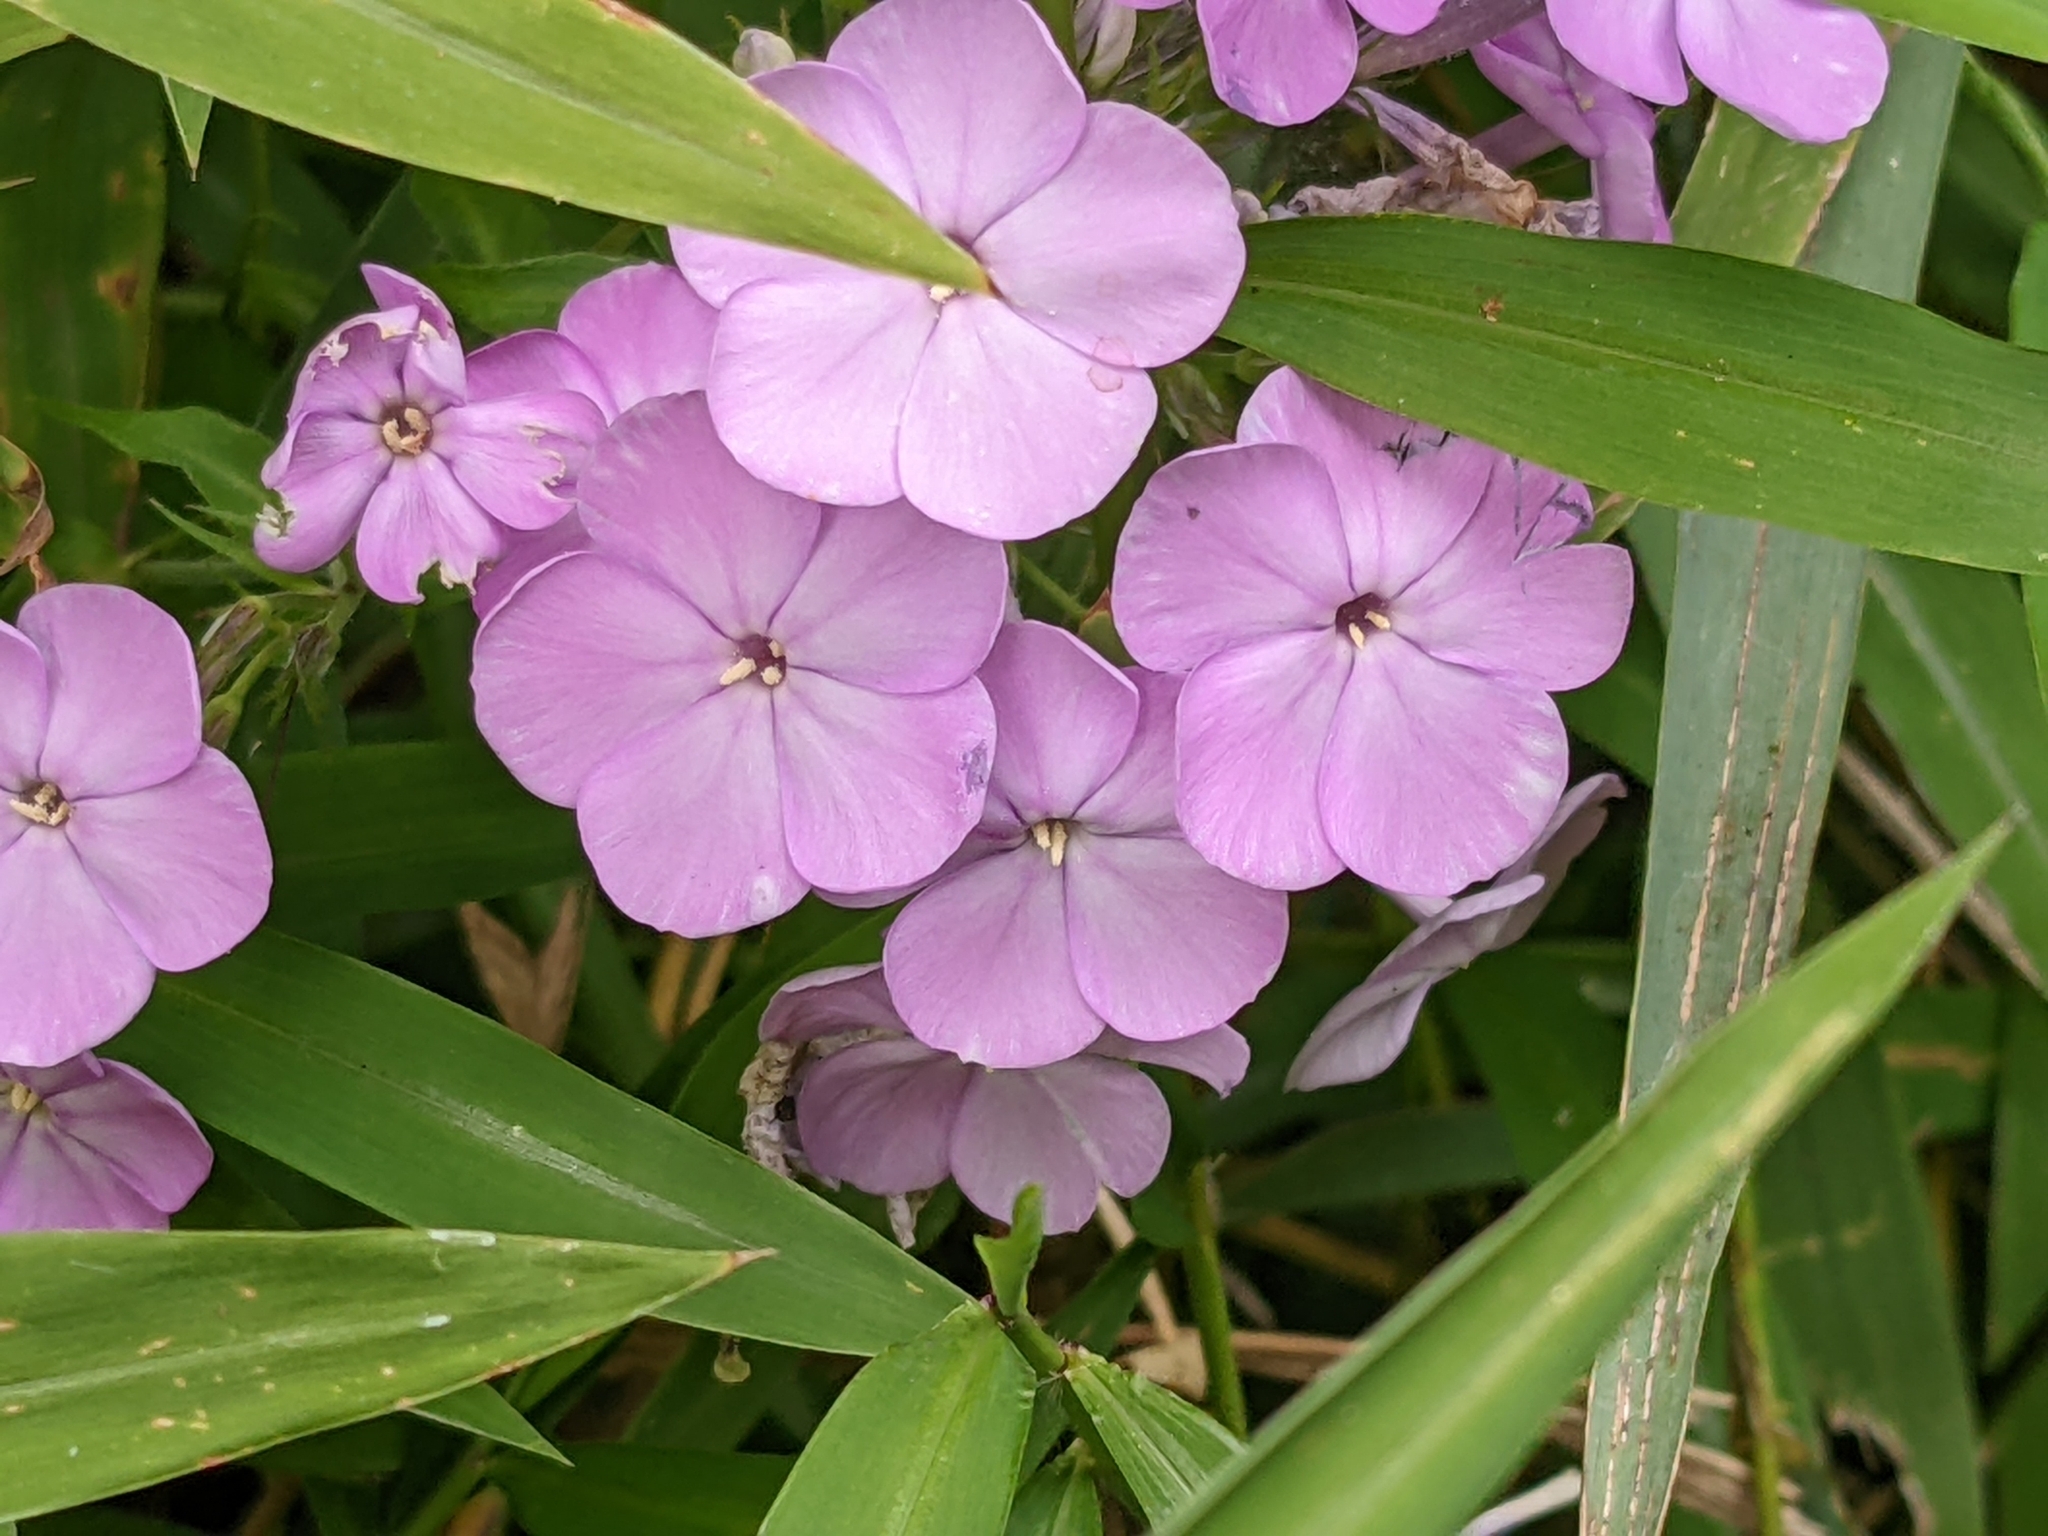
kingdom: Plantae
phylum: Tracheophyta
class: Magnoliopsida
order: Ericales
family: Polemoniaceae
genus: Phlox
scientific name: Phlox paniculata
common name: Fall phlox
